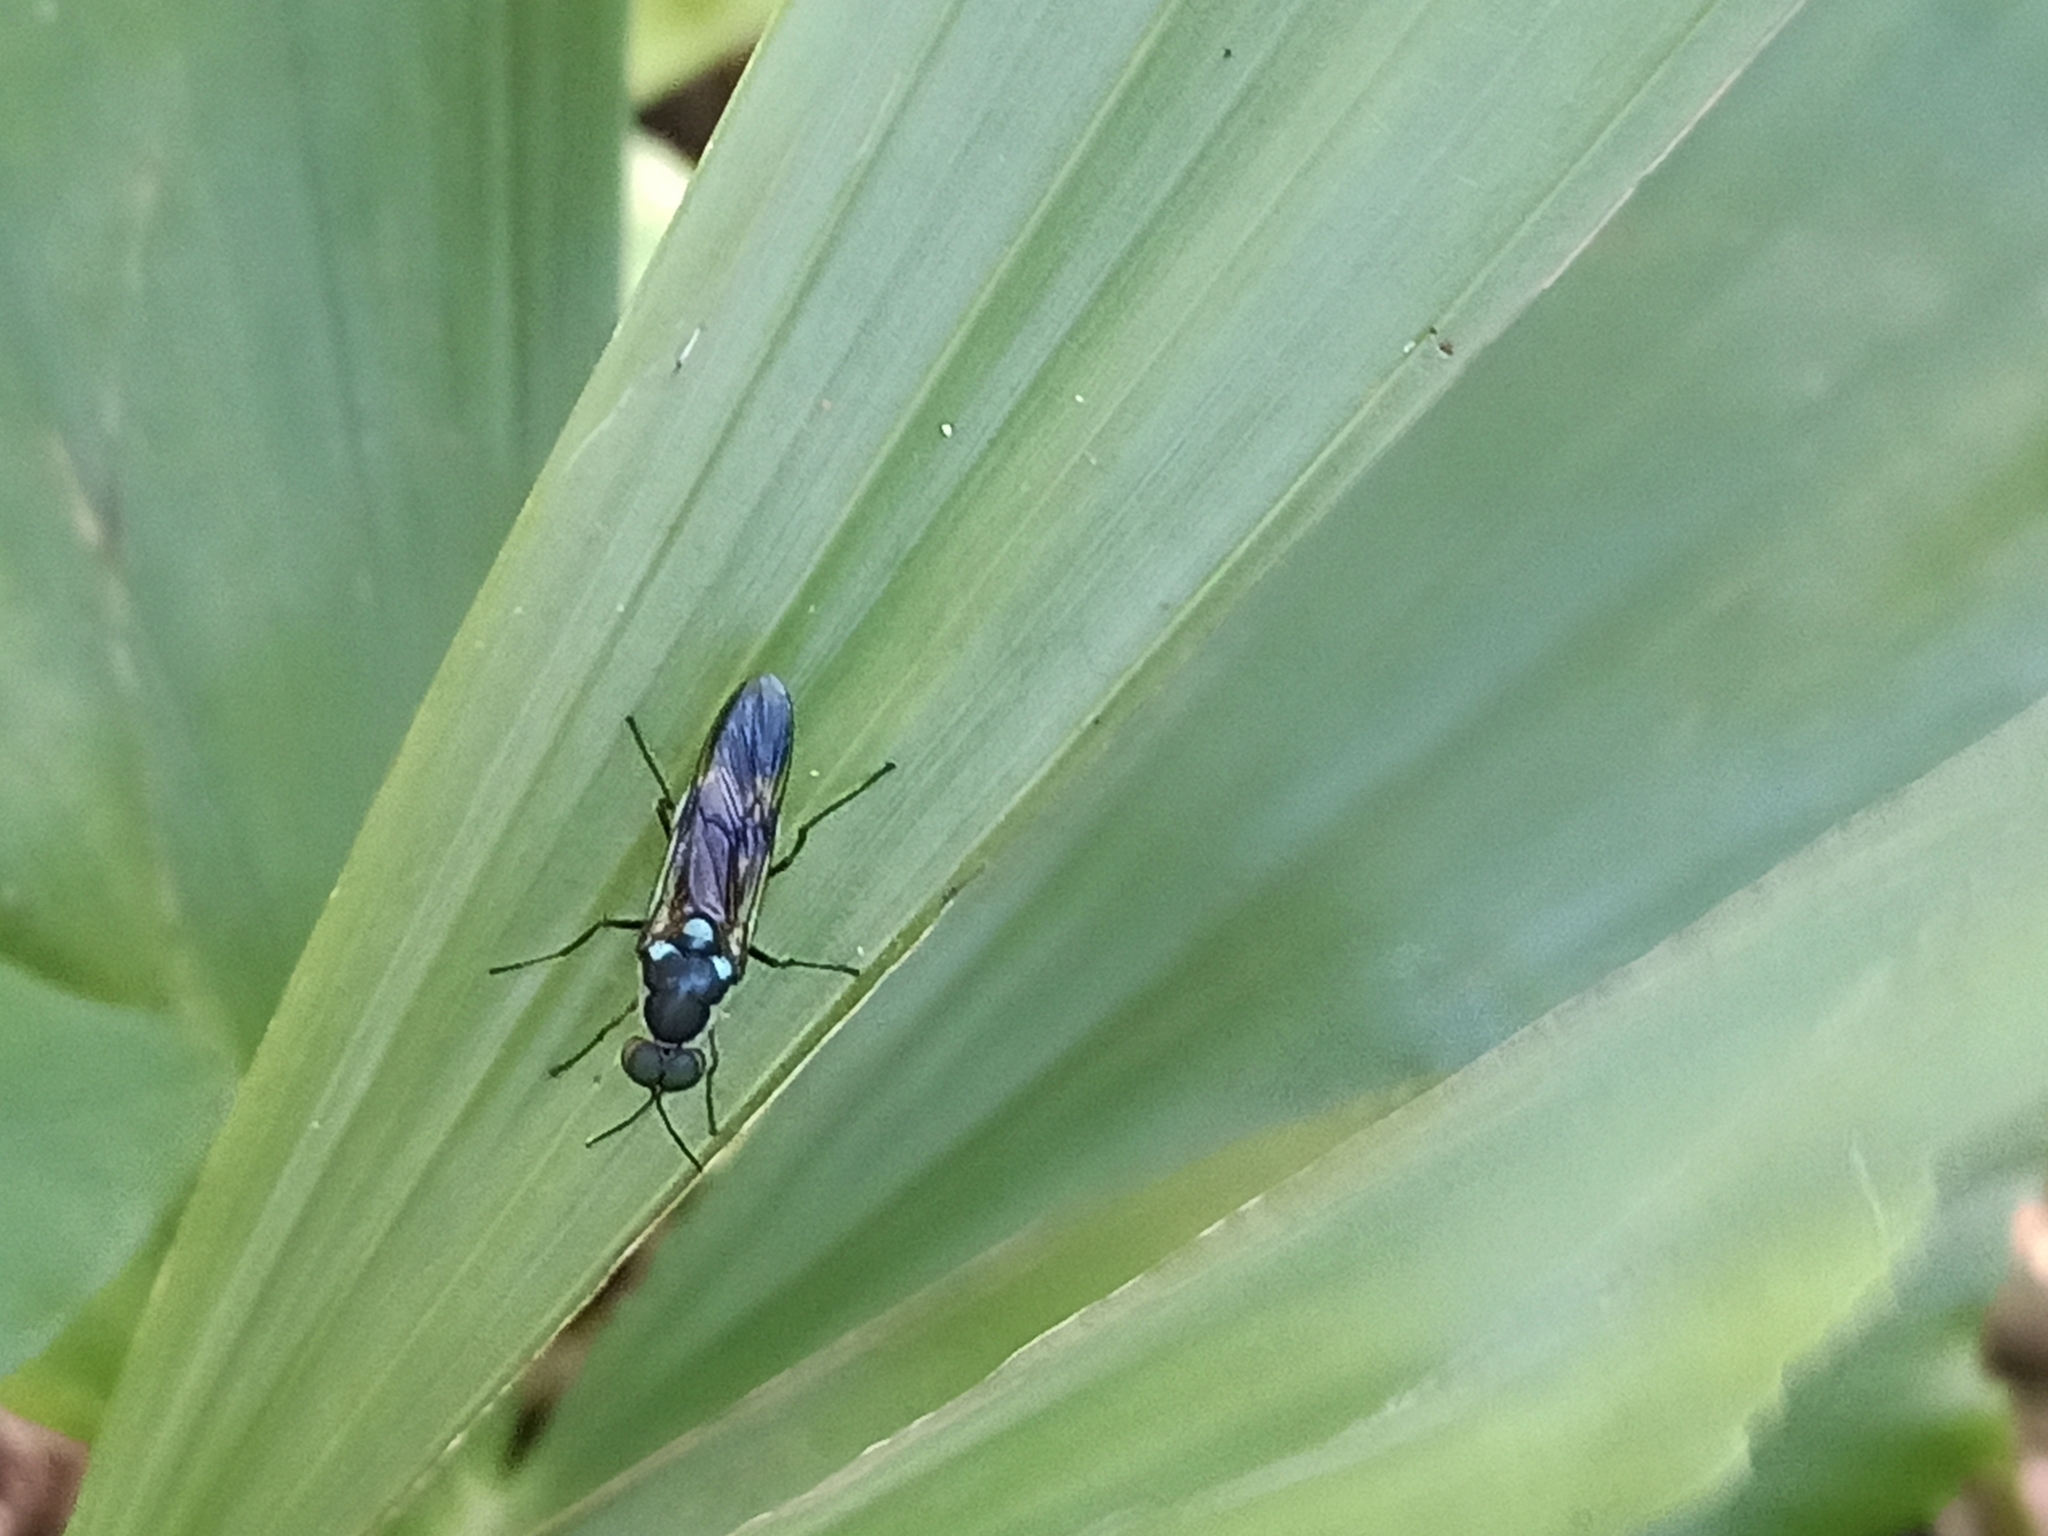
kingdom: Animalia
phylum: Arthropoda
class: Insecta
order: Diptera
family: Stratiomyidae
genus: Eudmeta
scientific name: Eudmeta marginata
